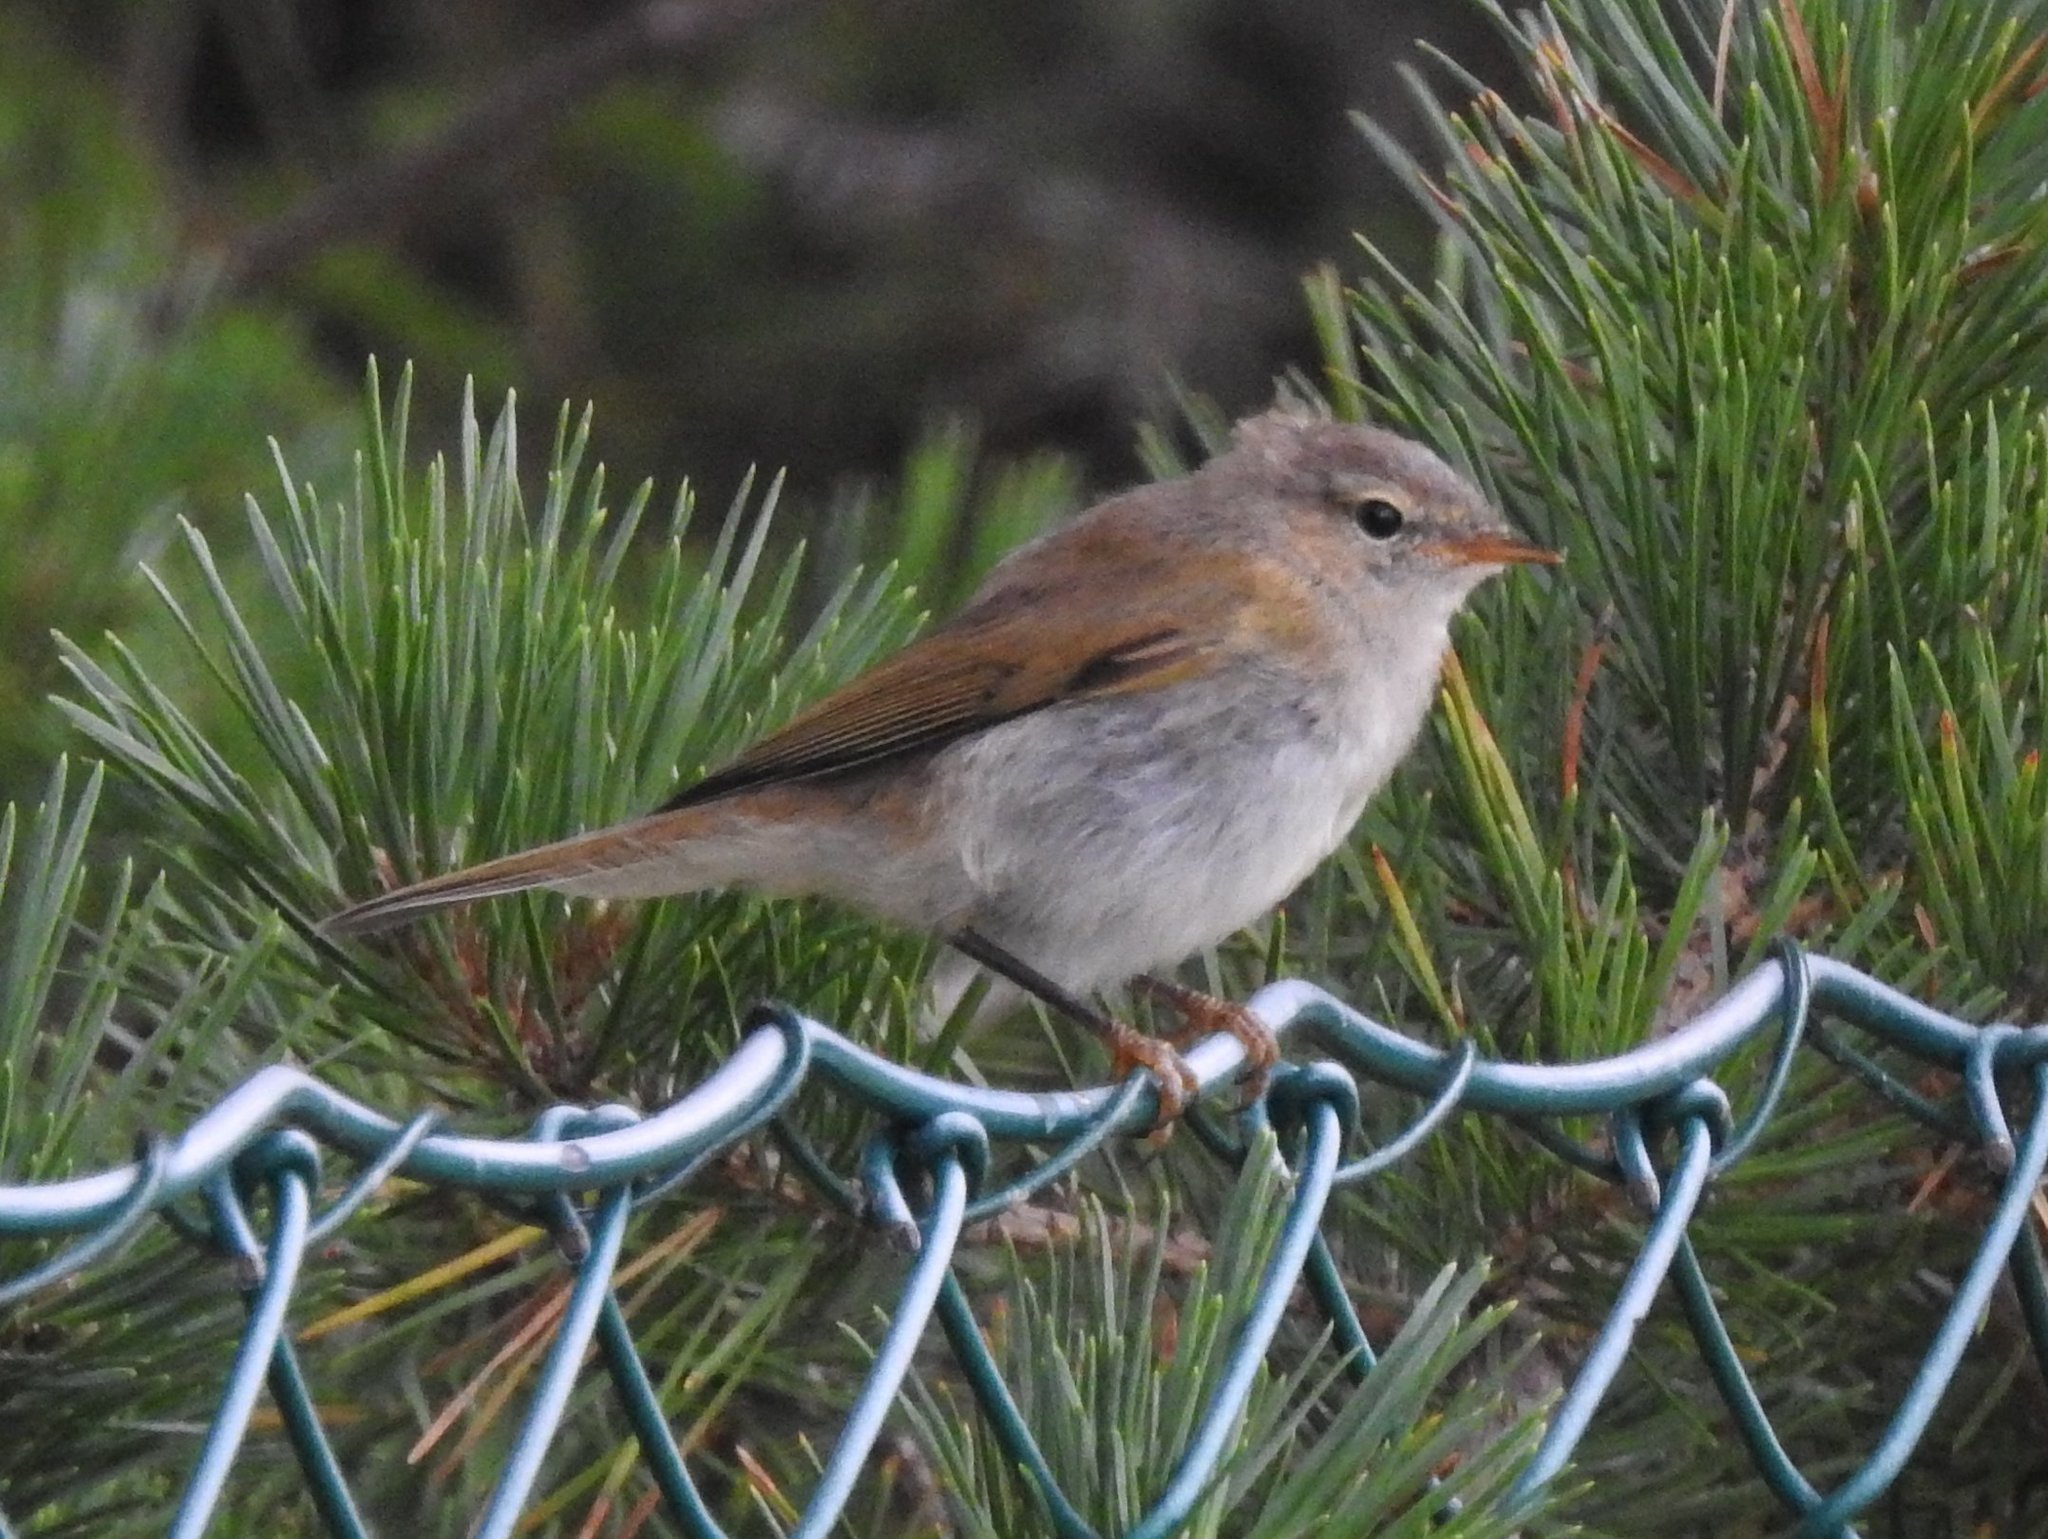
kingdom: Animalia
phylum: Chordata
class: Aves
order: Passeriformes
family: Phylloscopidae
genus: Phylloscopus
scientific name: Phylloscopus collybita
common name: Common chiffchaff
